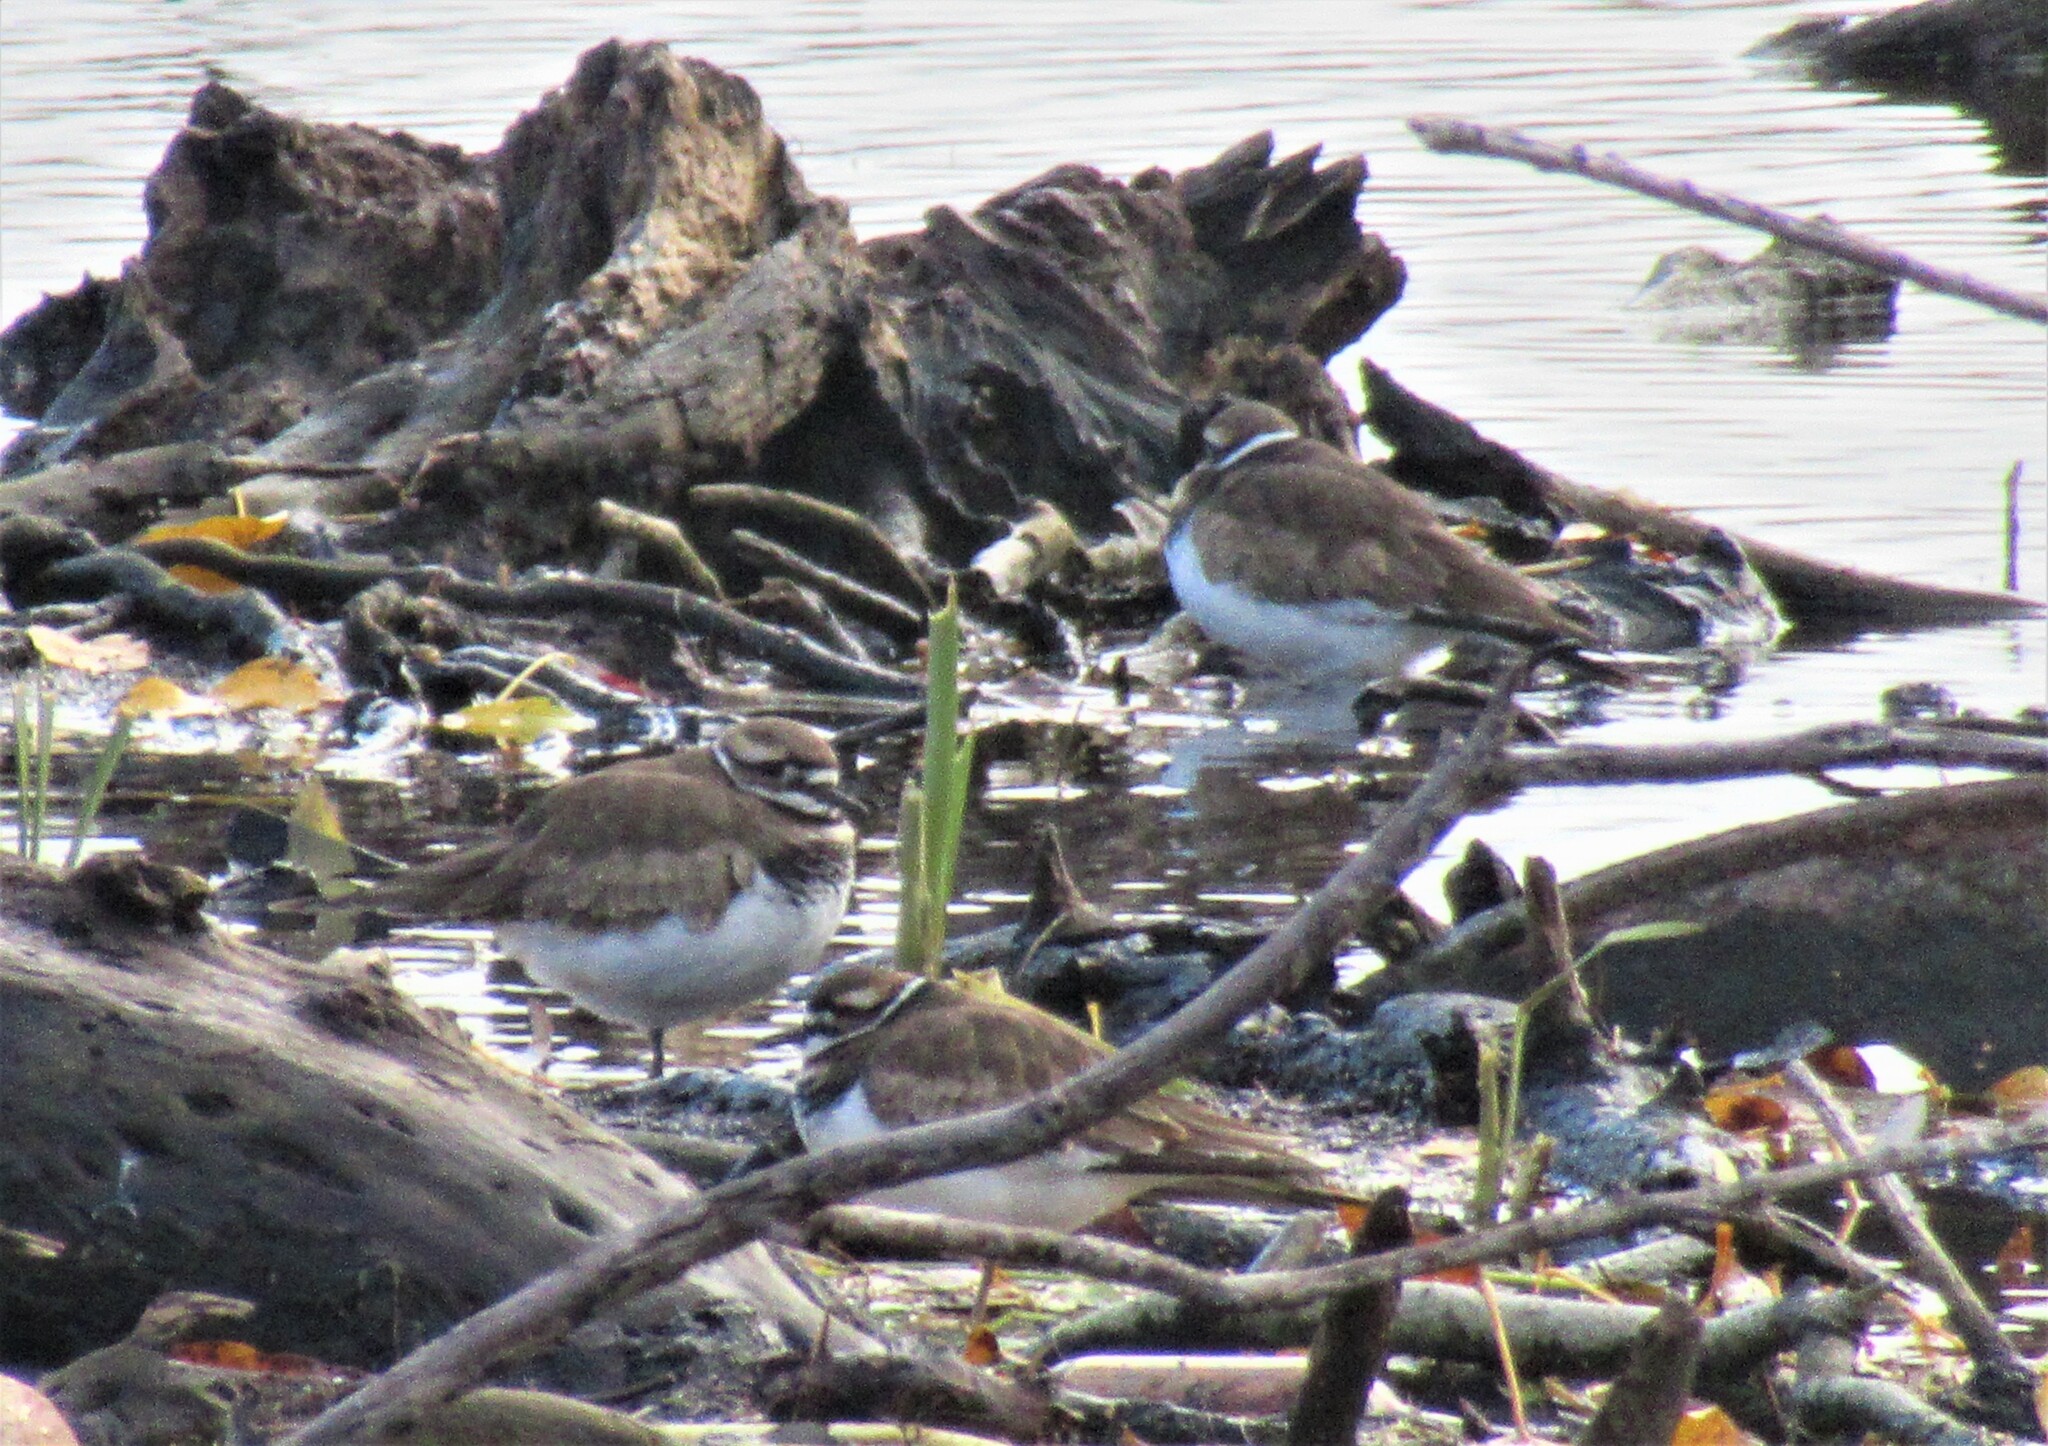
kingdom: Animalia
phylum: Chordata
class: Aves
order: Charadriiformes
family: Charadriidae
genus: Charadrius
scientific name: Charadrius vociferus
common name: Killdeer
